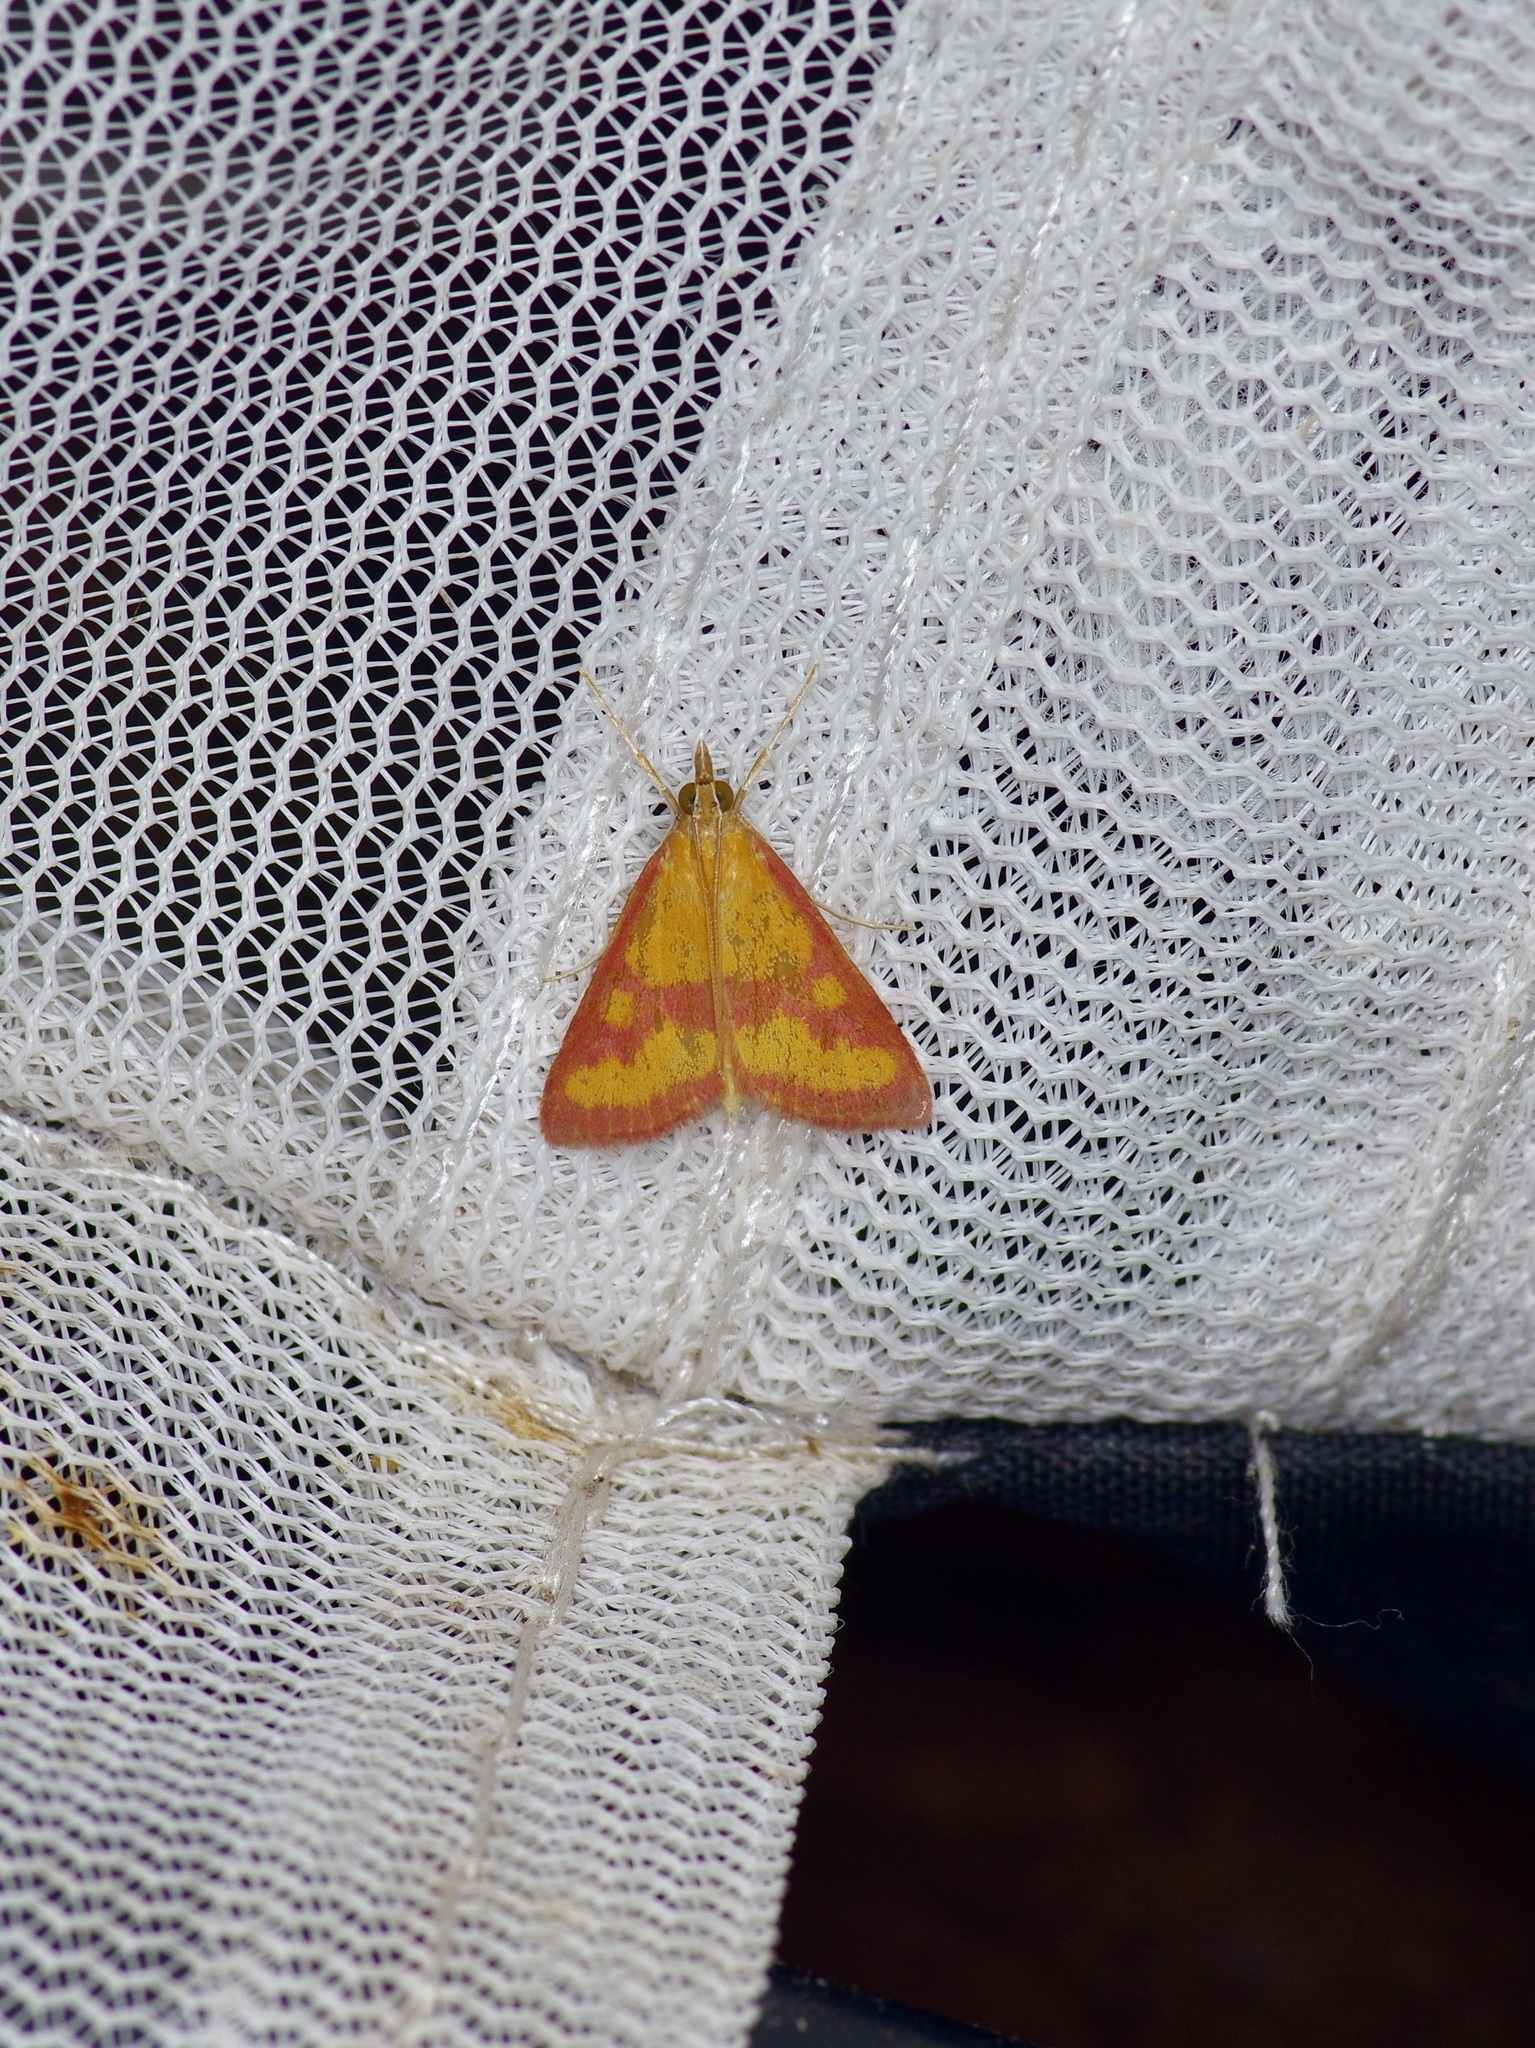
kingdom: Animalia
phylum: Arthropoda
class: Insecta
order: Lepidoptera
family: Crambidae
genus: Pyrausta
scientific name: Pyrausta laticlavia
